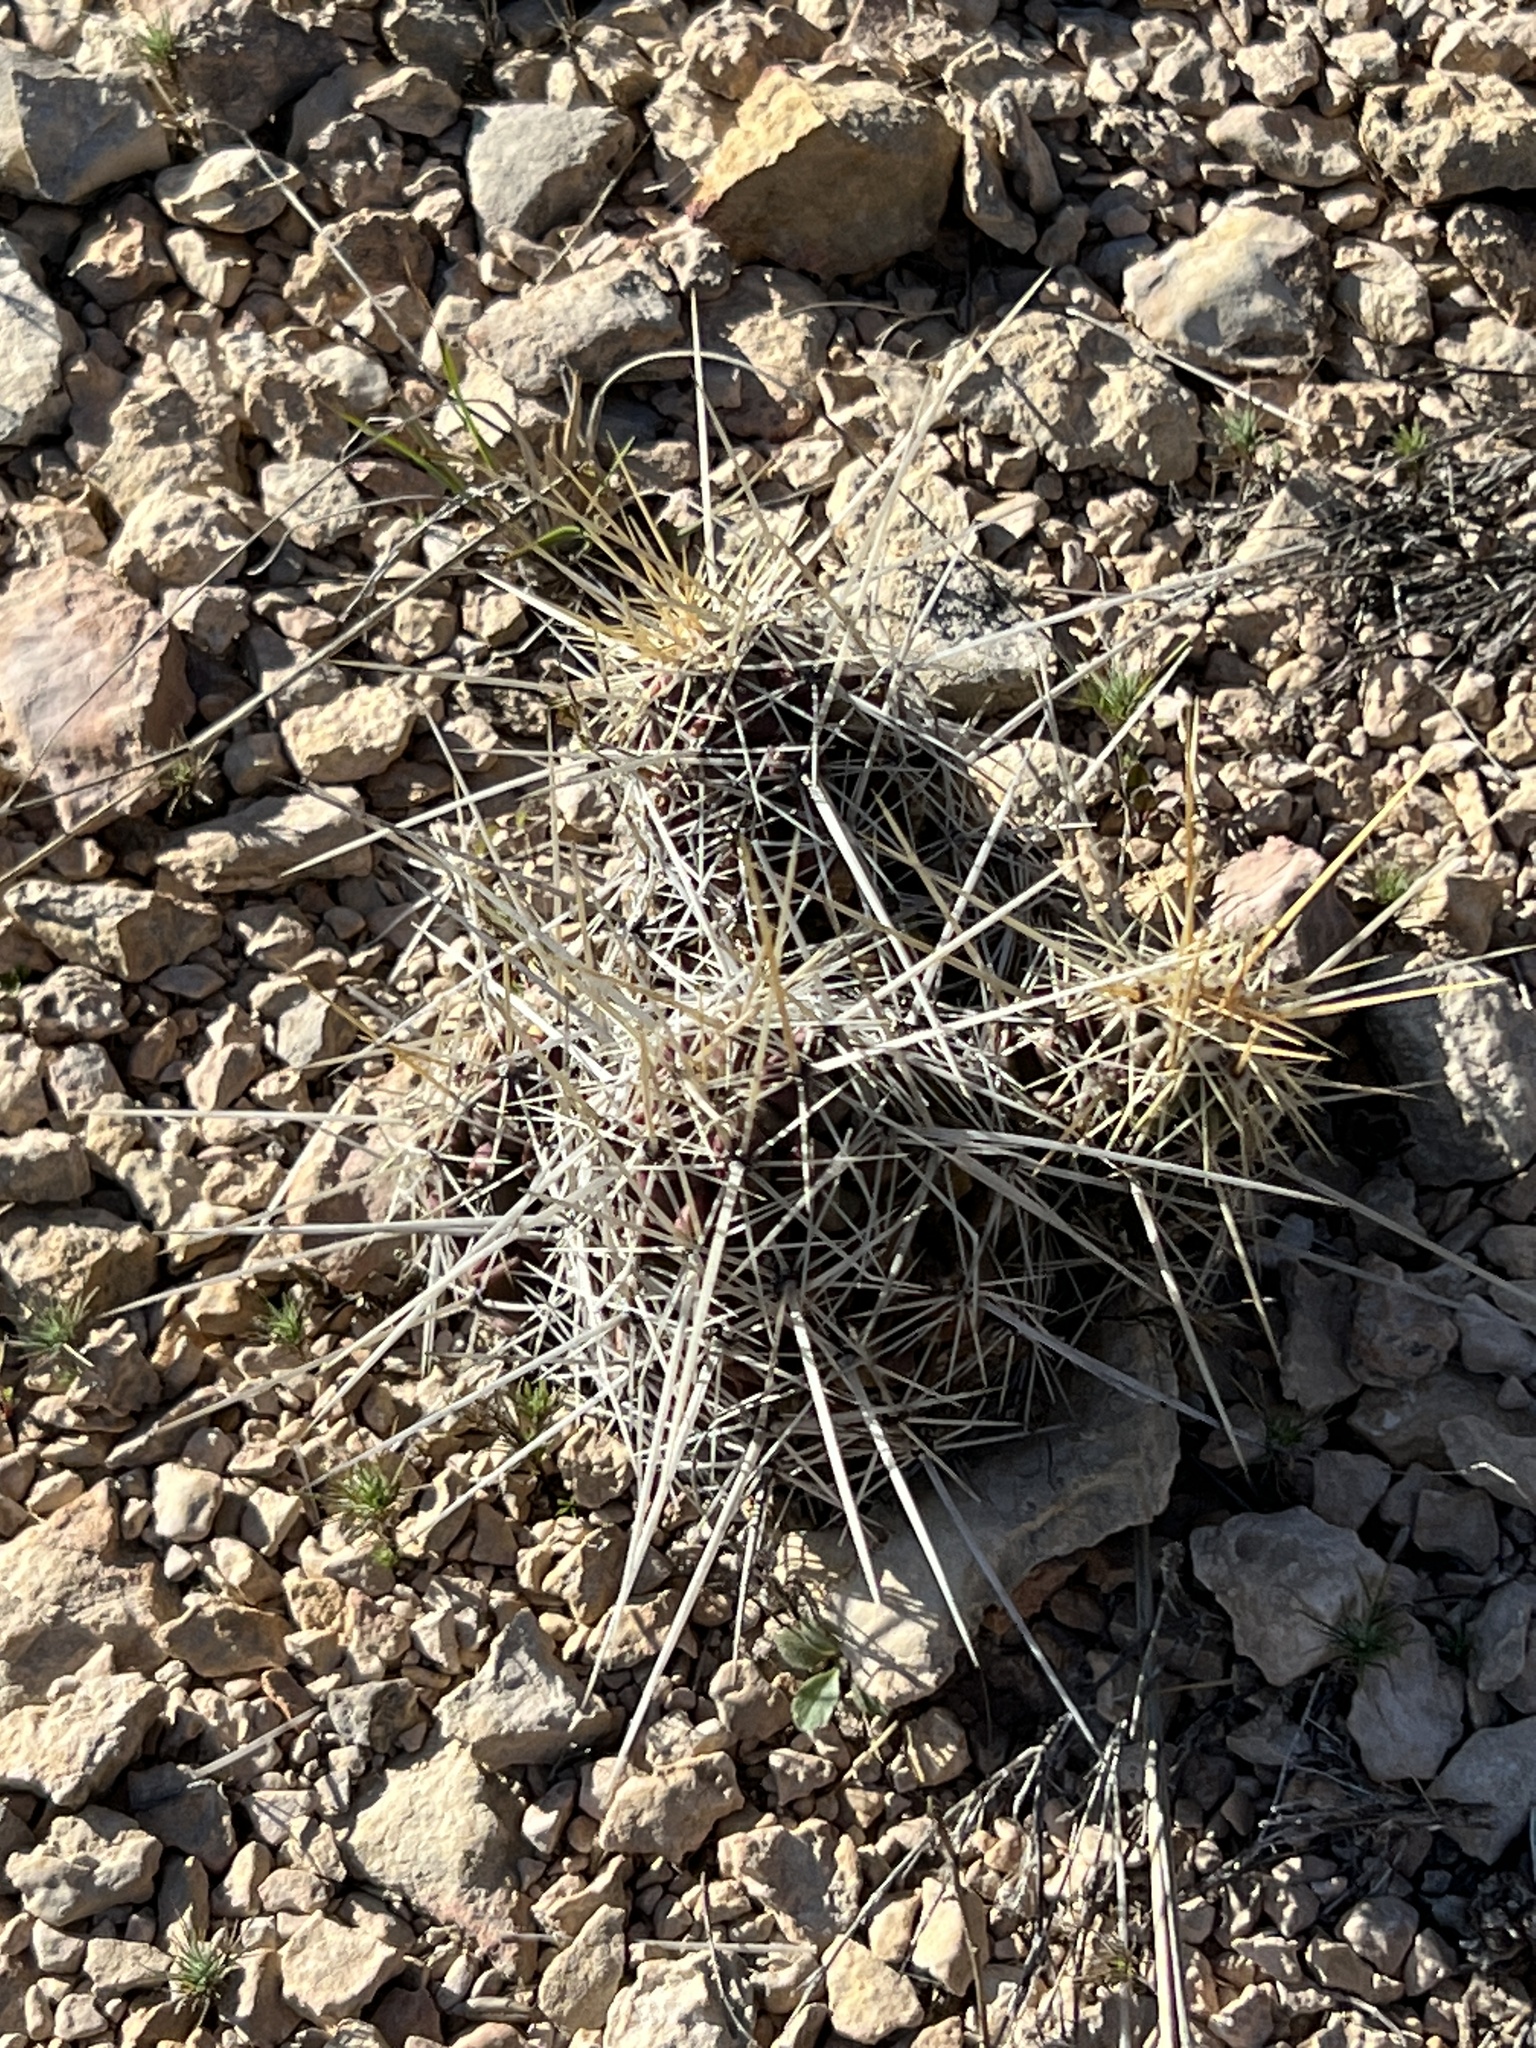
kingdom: Plantae
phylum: Tracheophyta
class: Magnoliopsida
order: Caryophyllales
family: Cactaceae
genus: Echinocereus
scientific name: Echinocereus enneacanthus
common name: Pitaya
